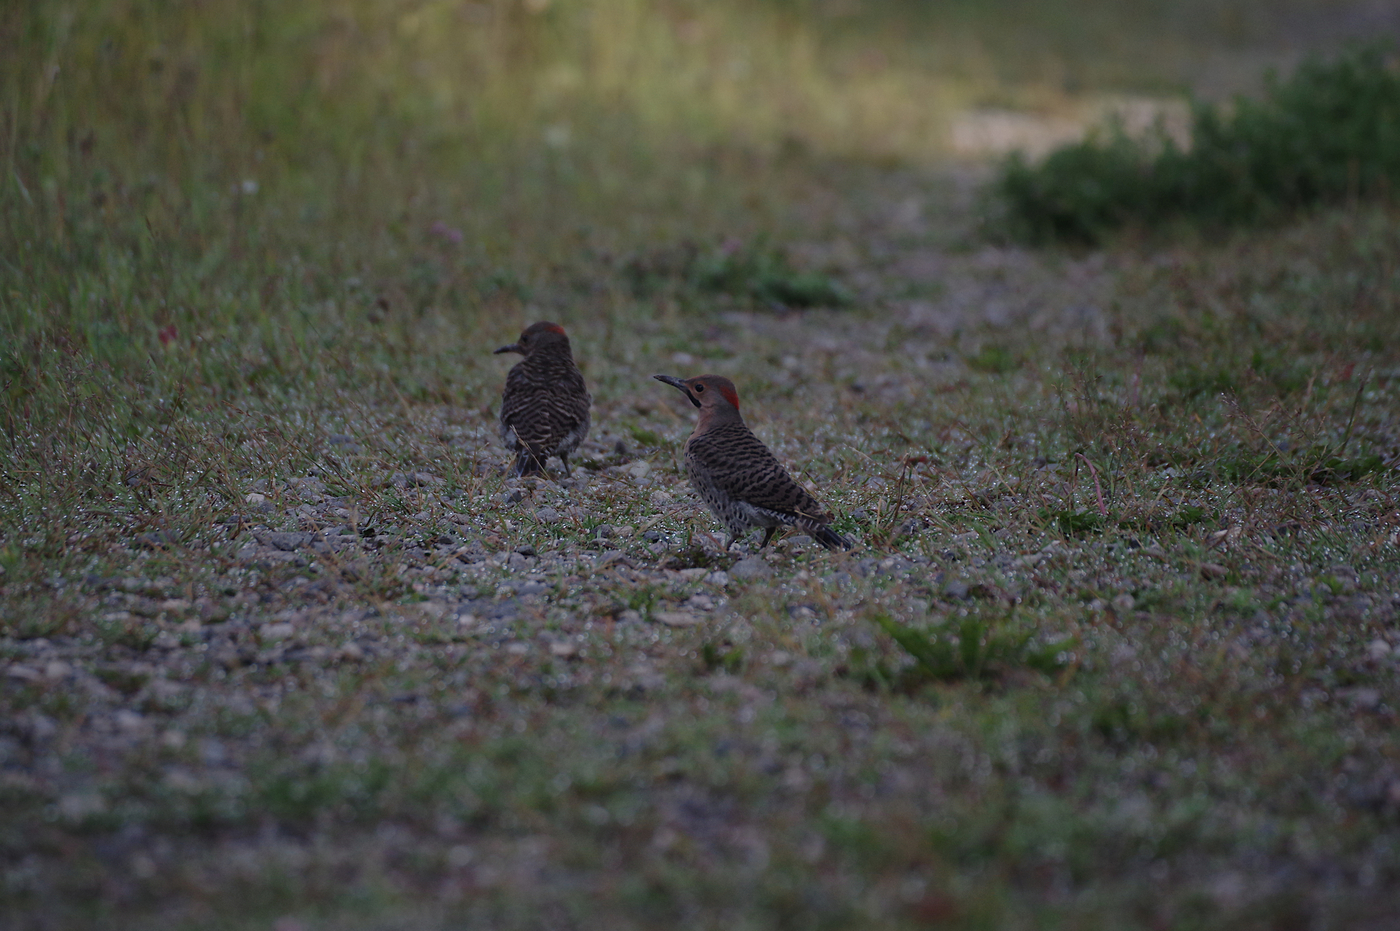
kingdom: Animalia
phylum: Chordata
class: Aves
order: Piciformes
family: Picidae
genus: Colaptes
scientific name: Colaptes auratus
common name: Northern flicker
